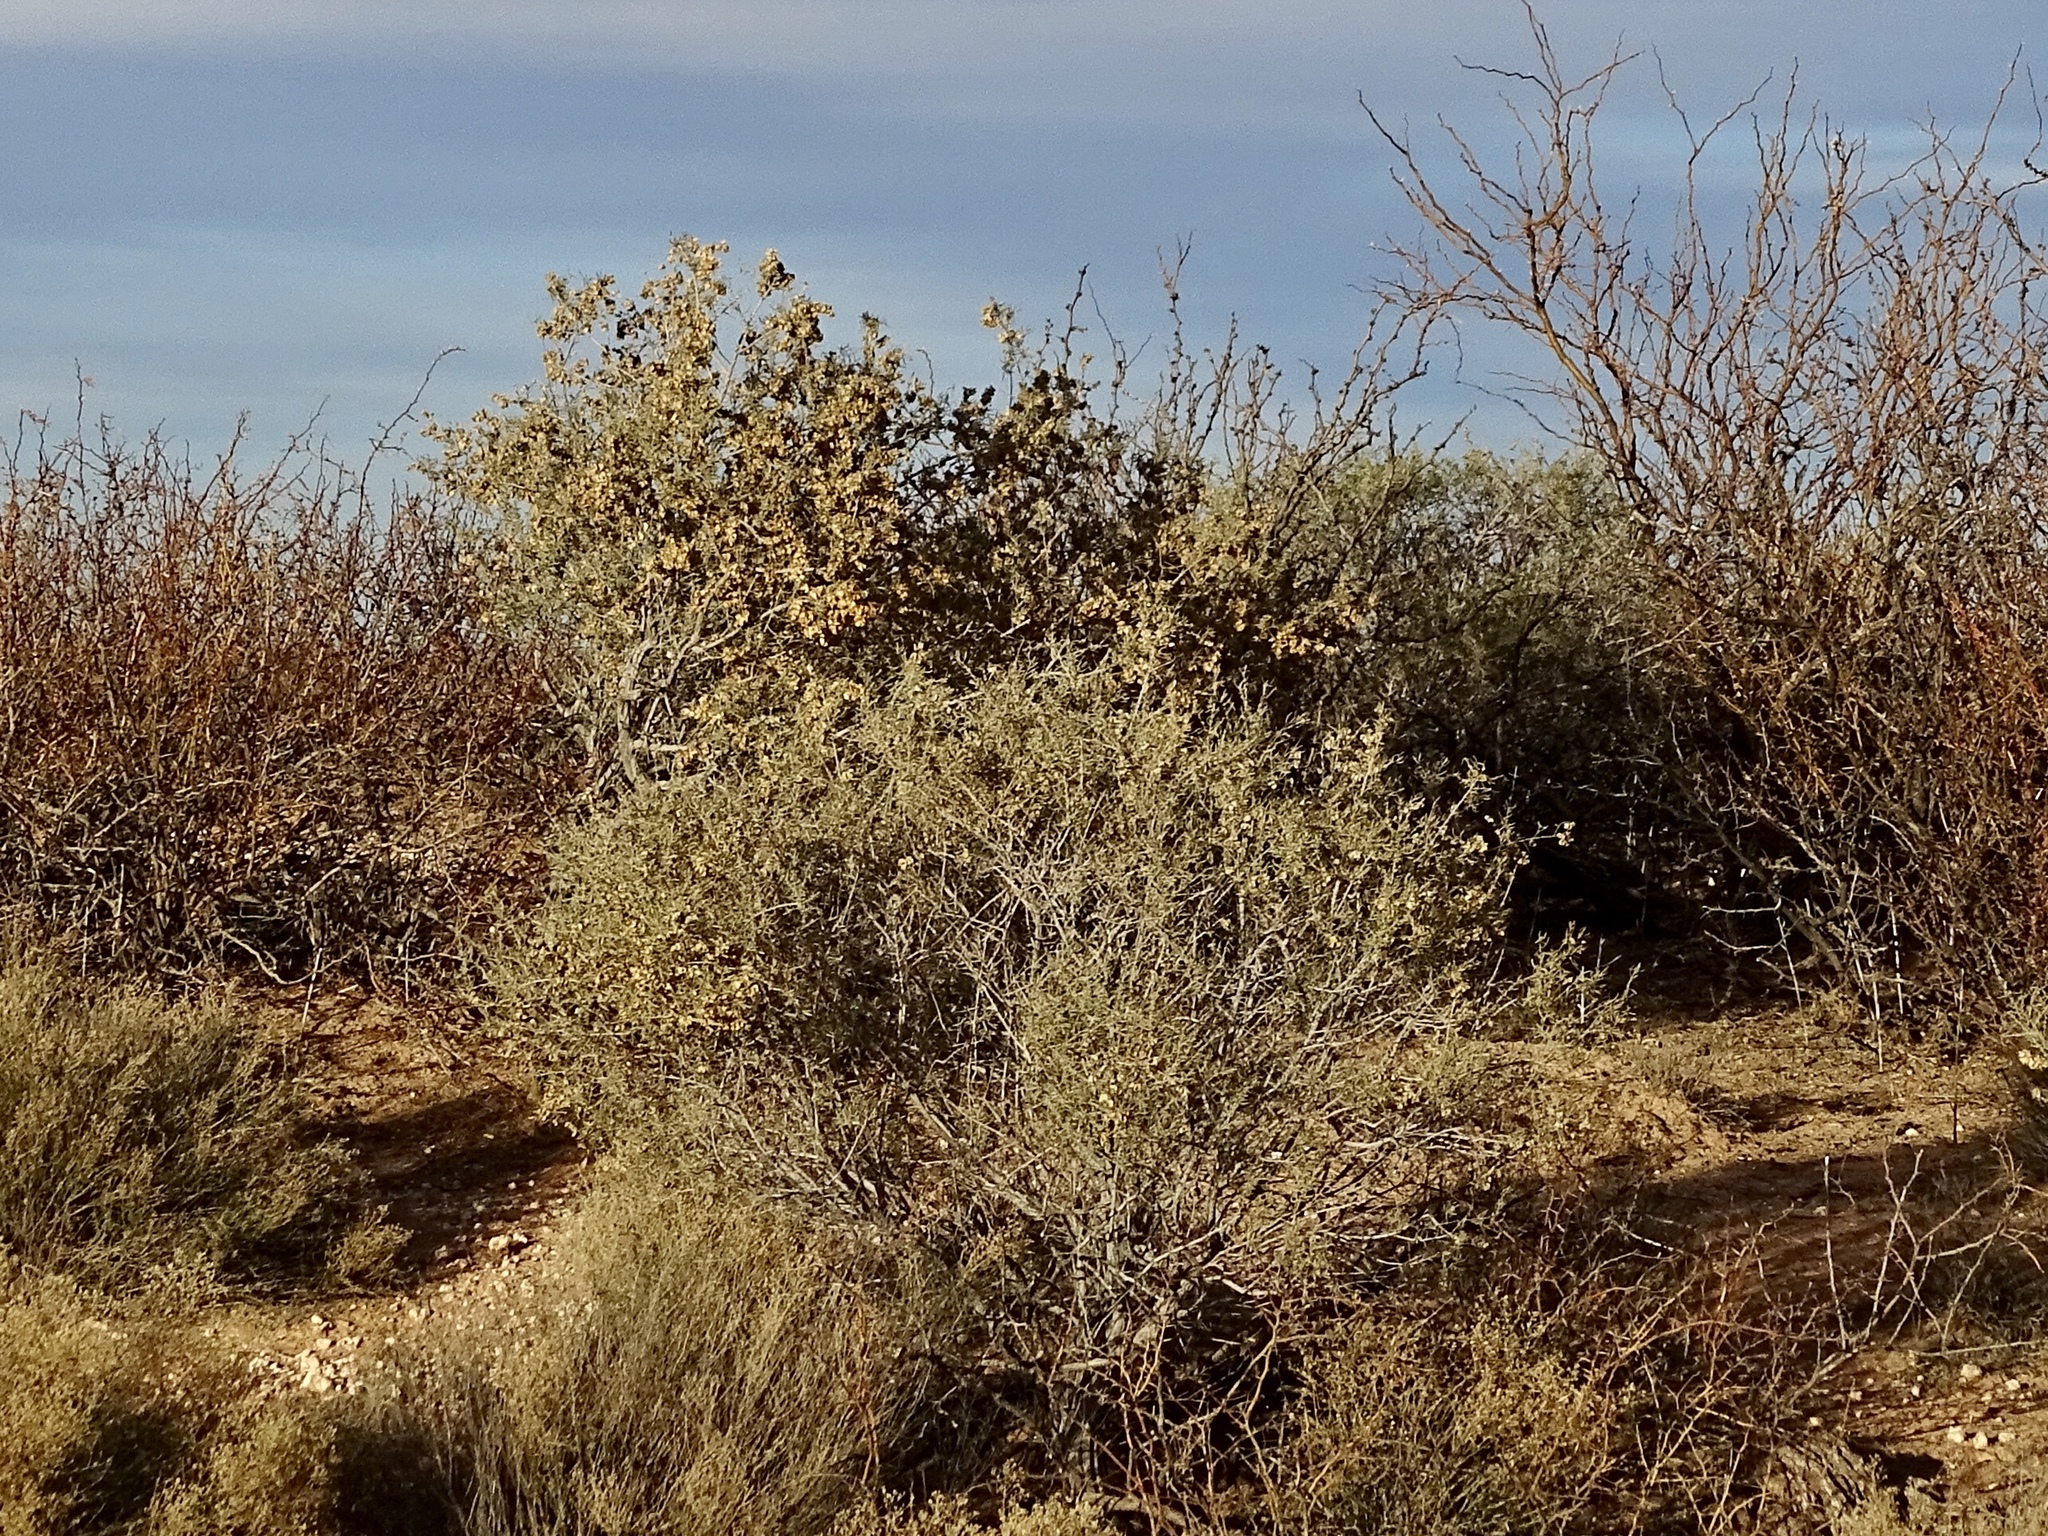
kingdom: Plantae
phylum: Tracheophyta
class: Magnoliopsida
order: Caryophyllales
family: Amaranthaceae
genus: Atriplex
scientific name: Atriplex canescens
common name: Four-wing saltbush
